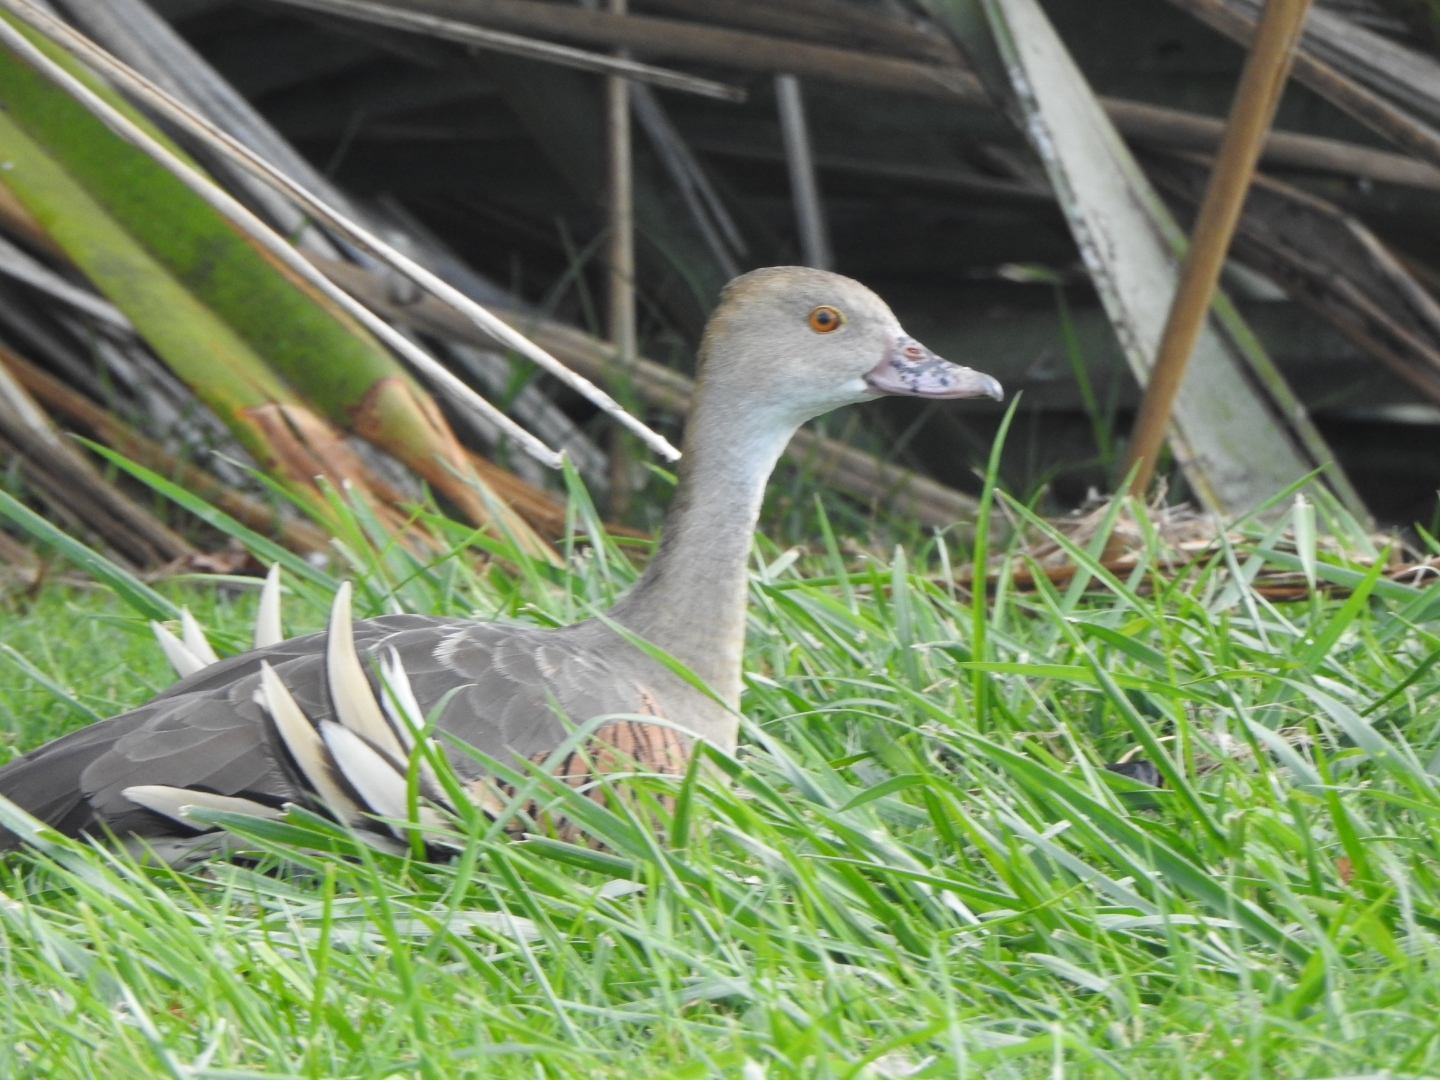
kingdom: Animalia
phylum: Chordata
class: Aves
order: Anseriformes
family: Anatidae
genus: Dendrocygna
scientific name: Dendrocygna eytoni
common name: Plumed whistling-duck
